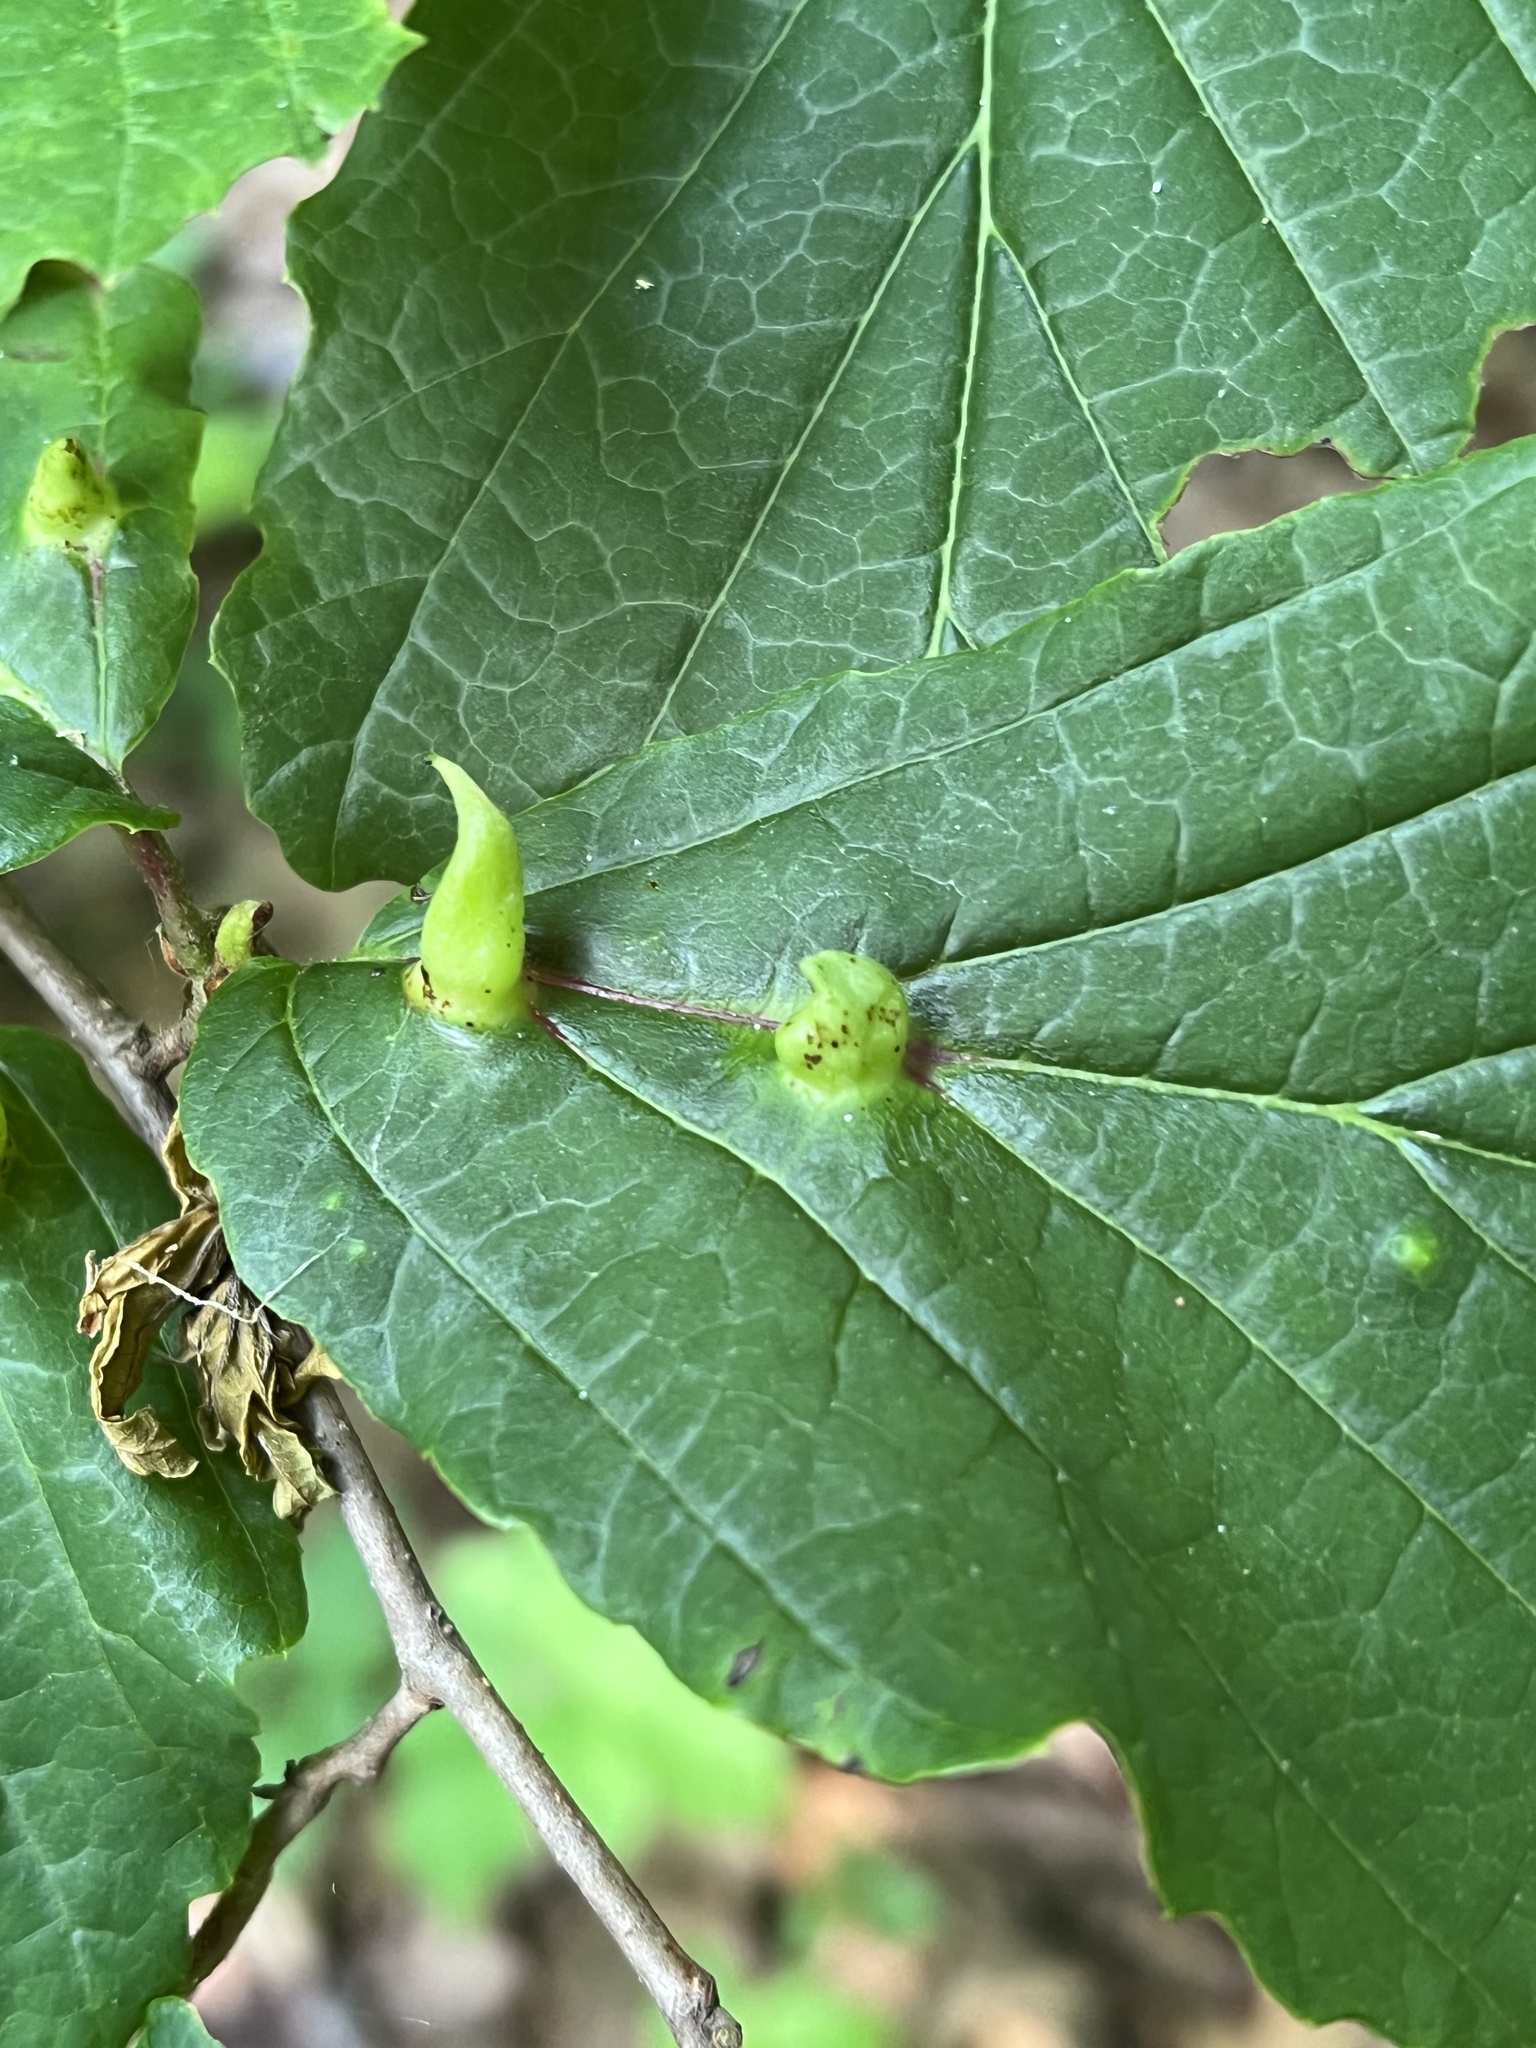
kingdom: Animalia
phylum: Arthropoda
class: Insecta
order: Hemiptera
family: Aphididae
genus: Hormaphis
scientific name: Hormaphis hamamelidis
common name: Witch-hazel cone gall aphid
